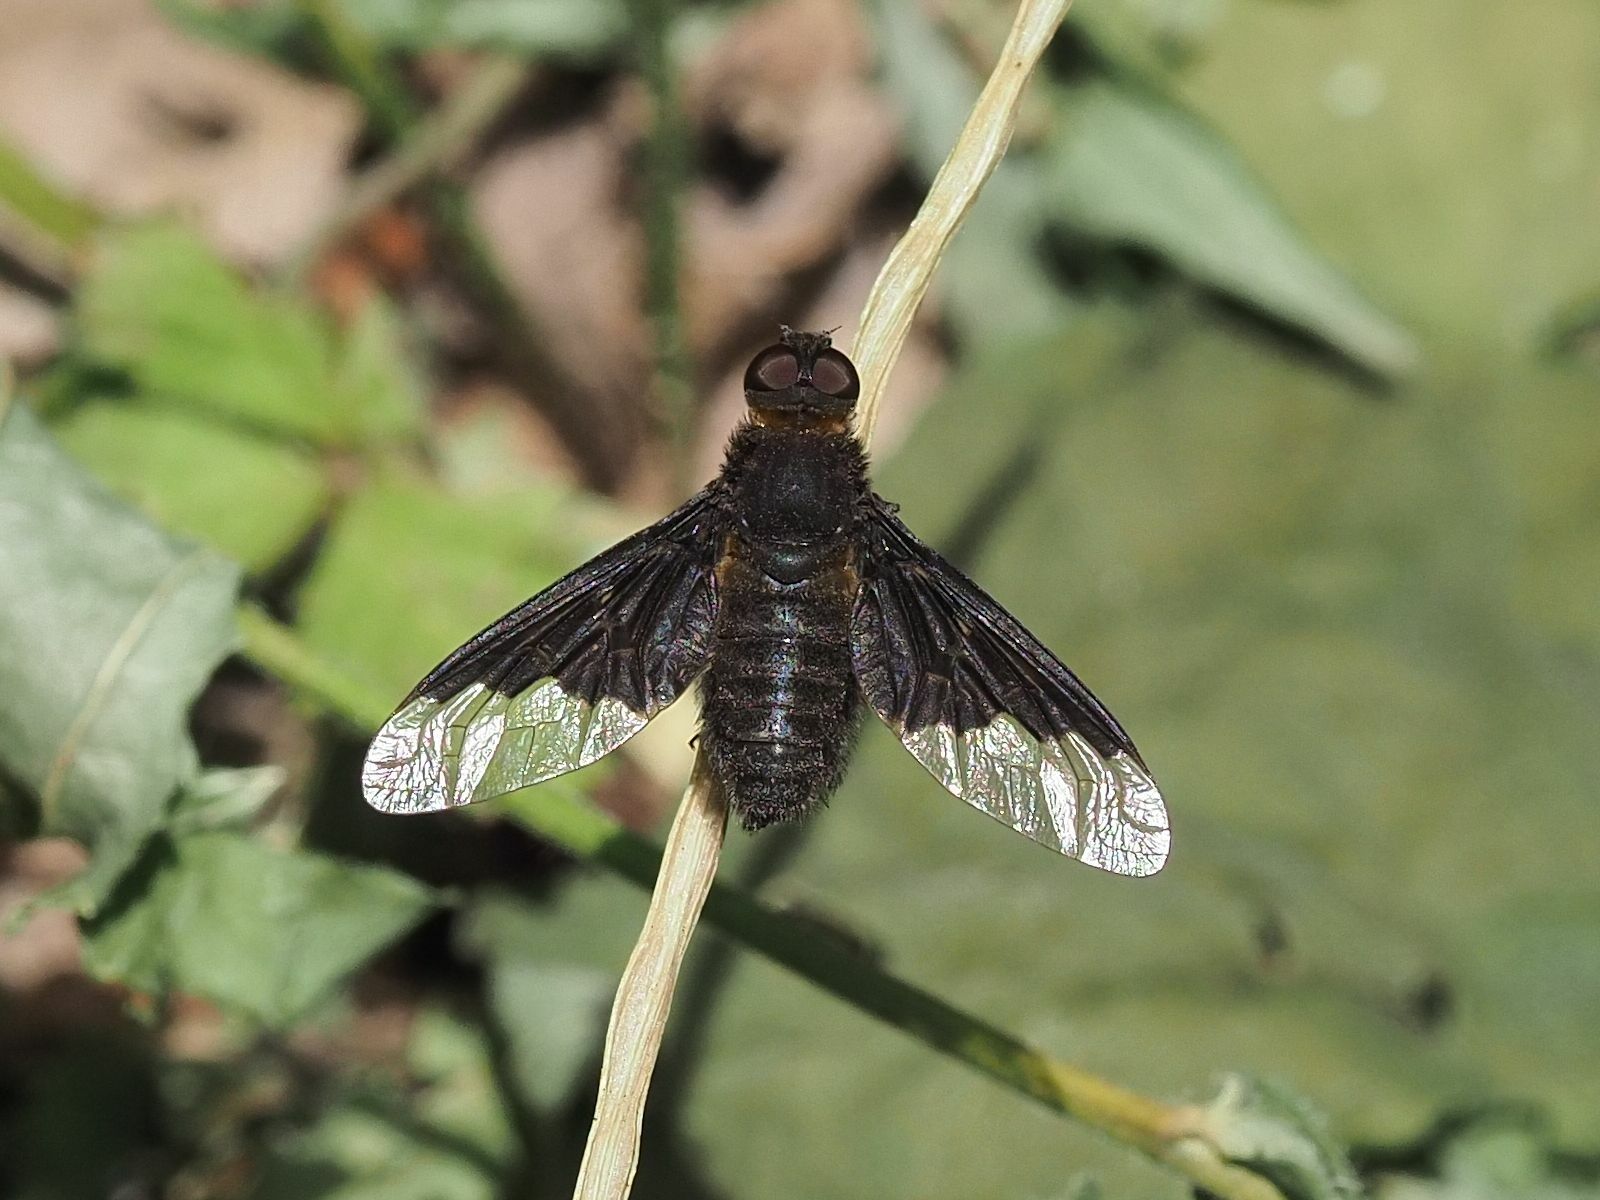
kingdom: Animalia
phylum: Arthropoda
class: Insecta
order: Diptera
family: Bombyliidae
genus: Hemipenthes
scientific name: Hemipenthes morio
